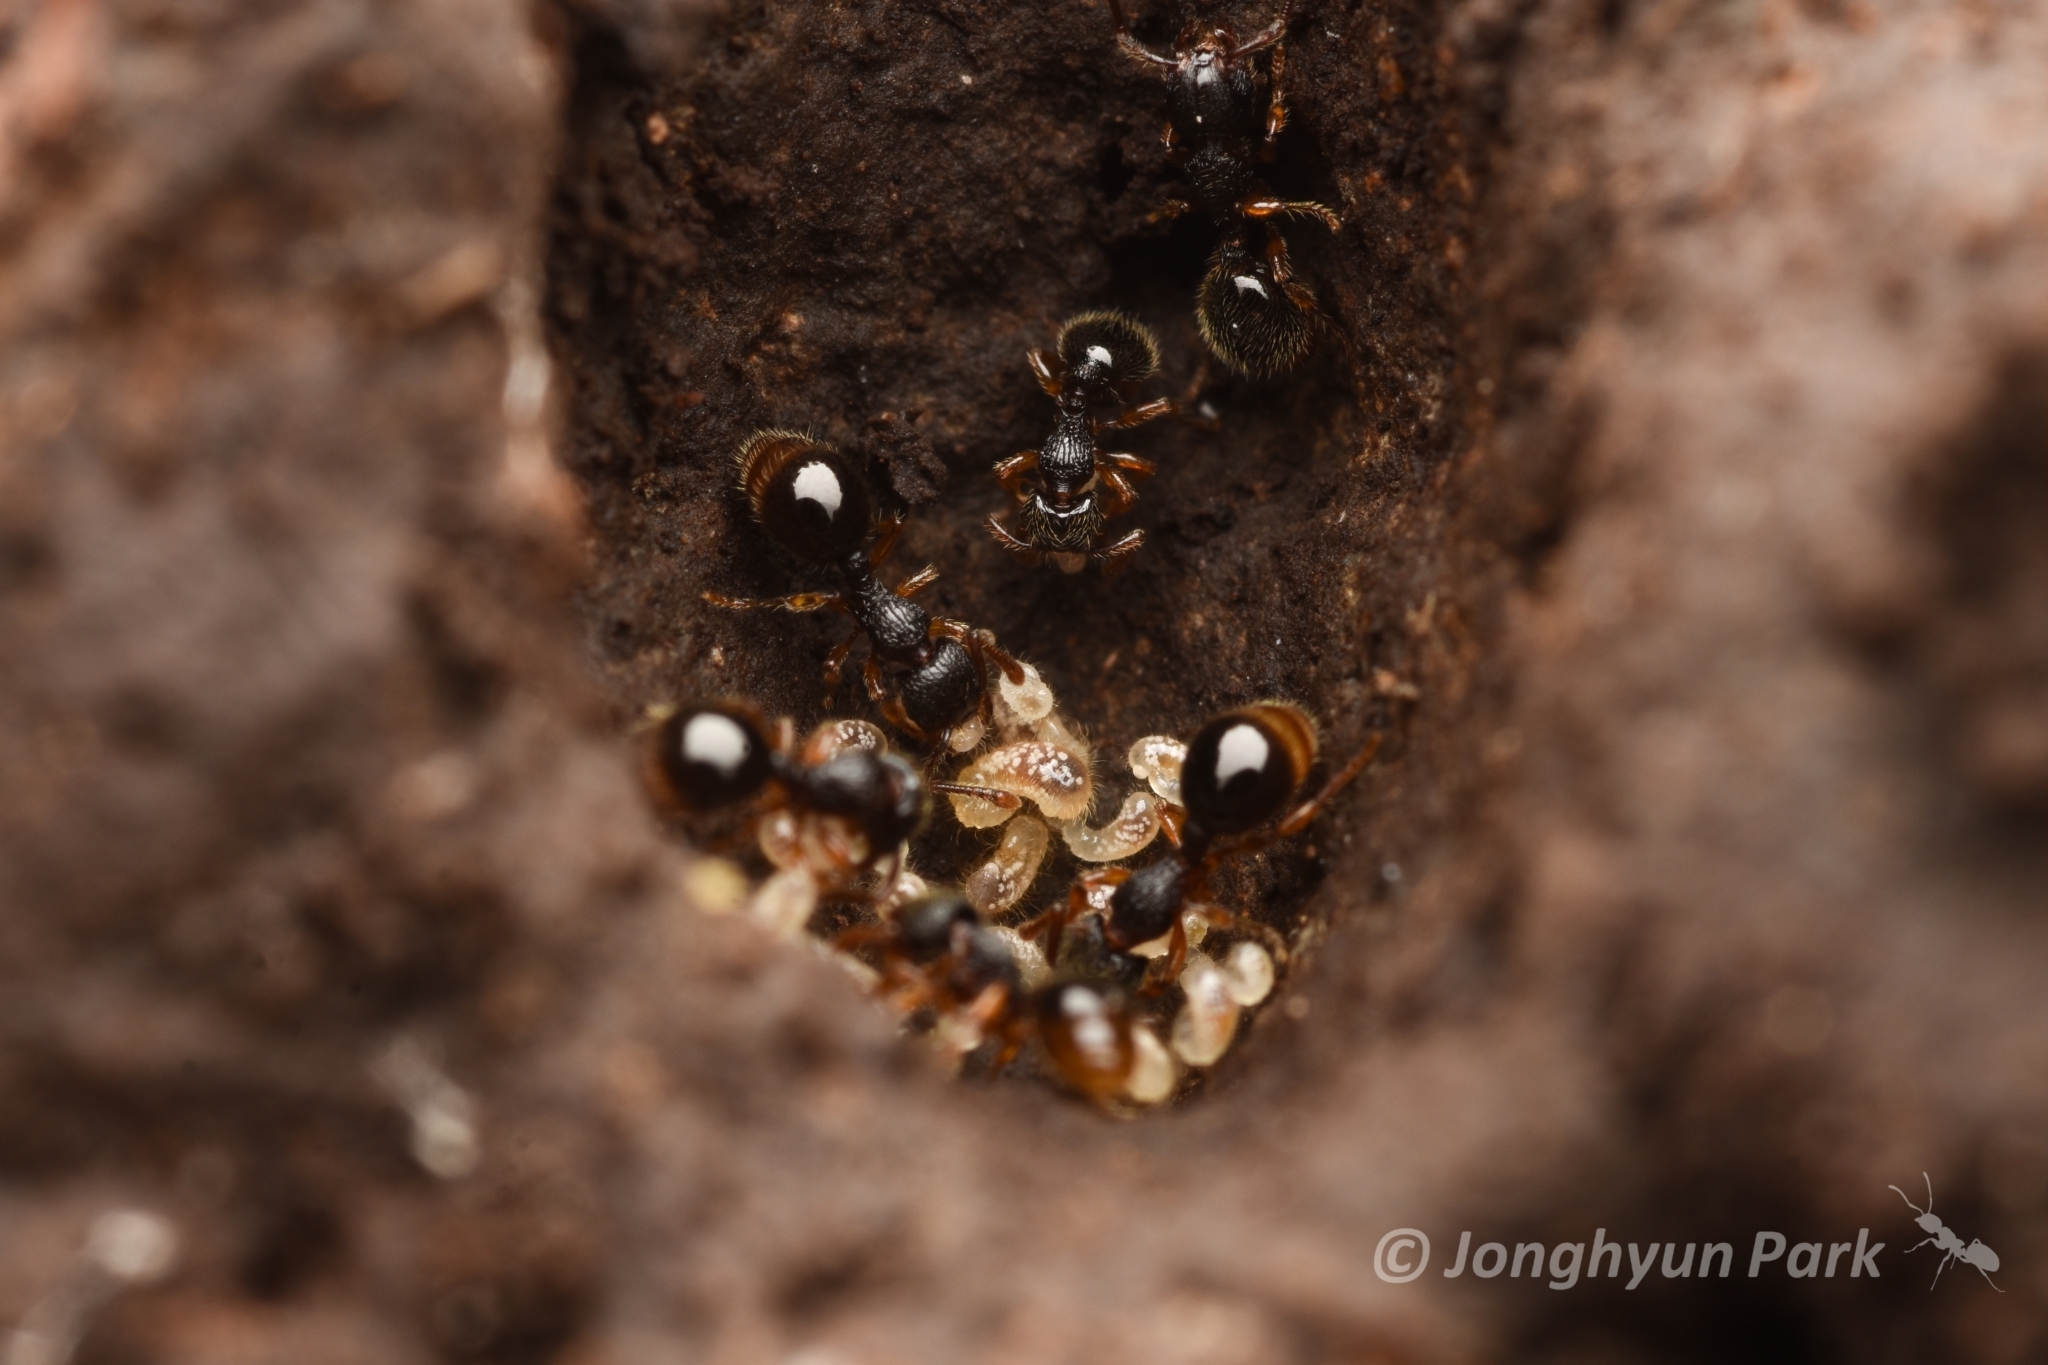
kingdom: Animalia
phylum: Arthropoda
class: Insecta
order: Hymenoptera
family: Formicidae
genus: Myrmecina
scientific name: Myrmecina nipponica
